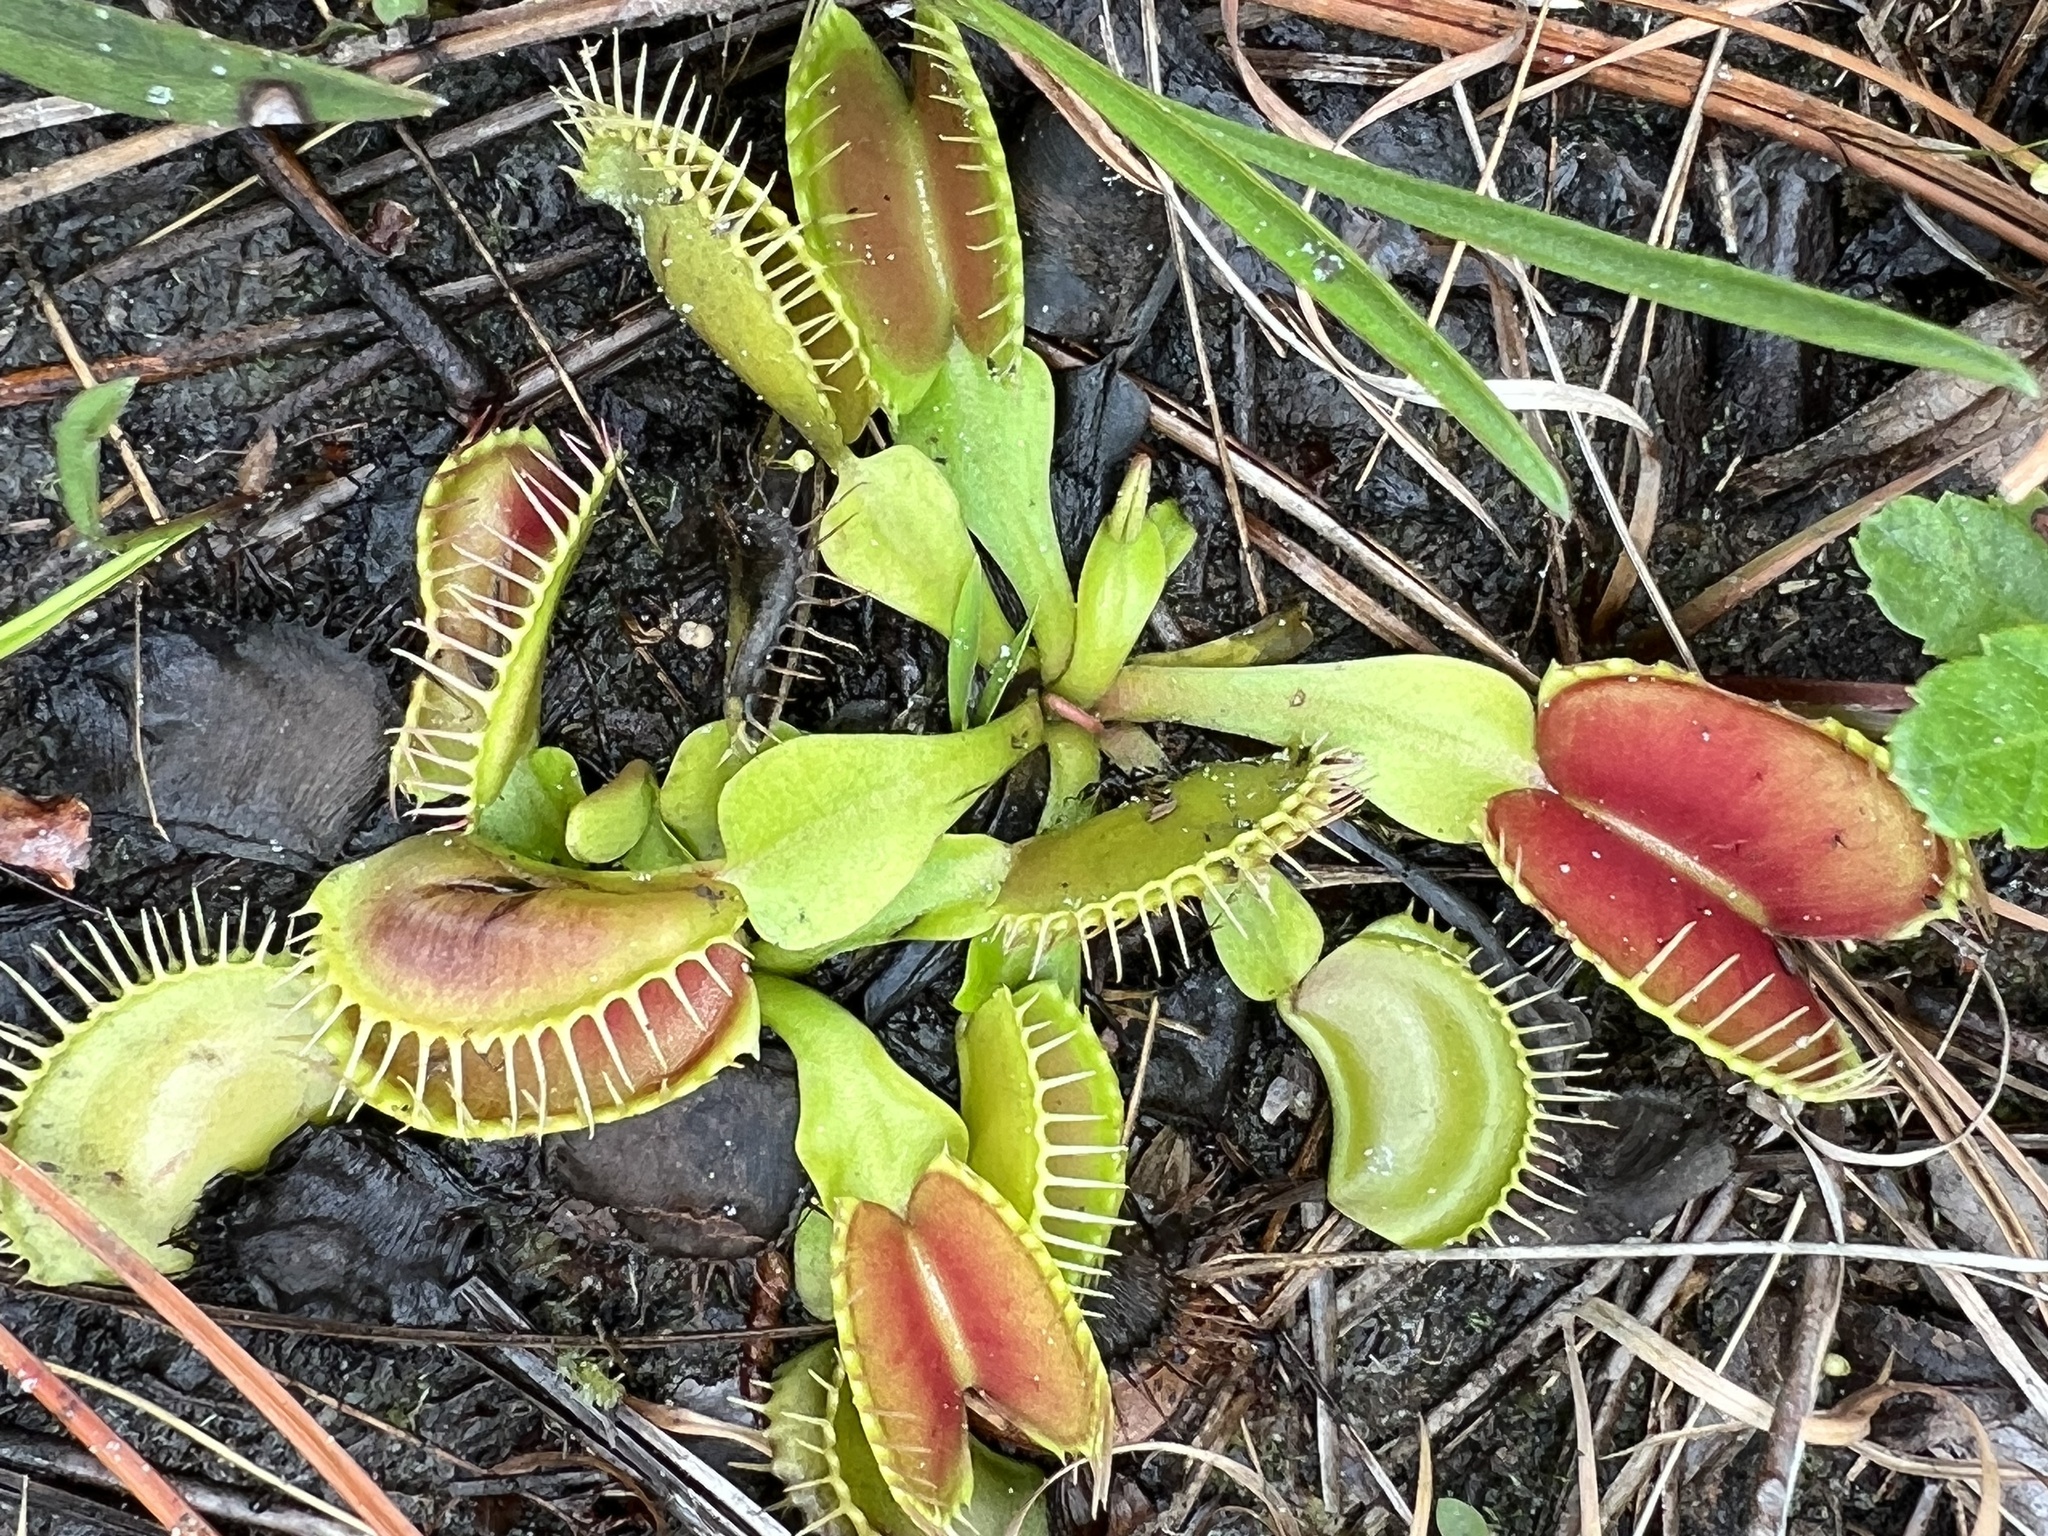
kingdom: Plantae
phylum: Tracheophyta
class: Magnoliopsida
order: Caryophyllales
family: Droseraceae
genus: Dionaea
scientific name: Dionaea muscipula
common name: Venus flytrap
